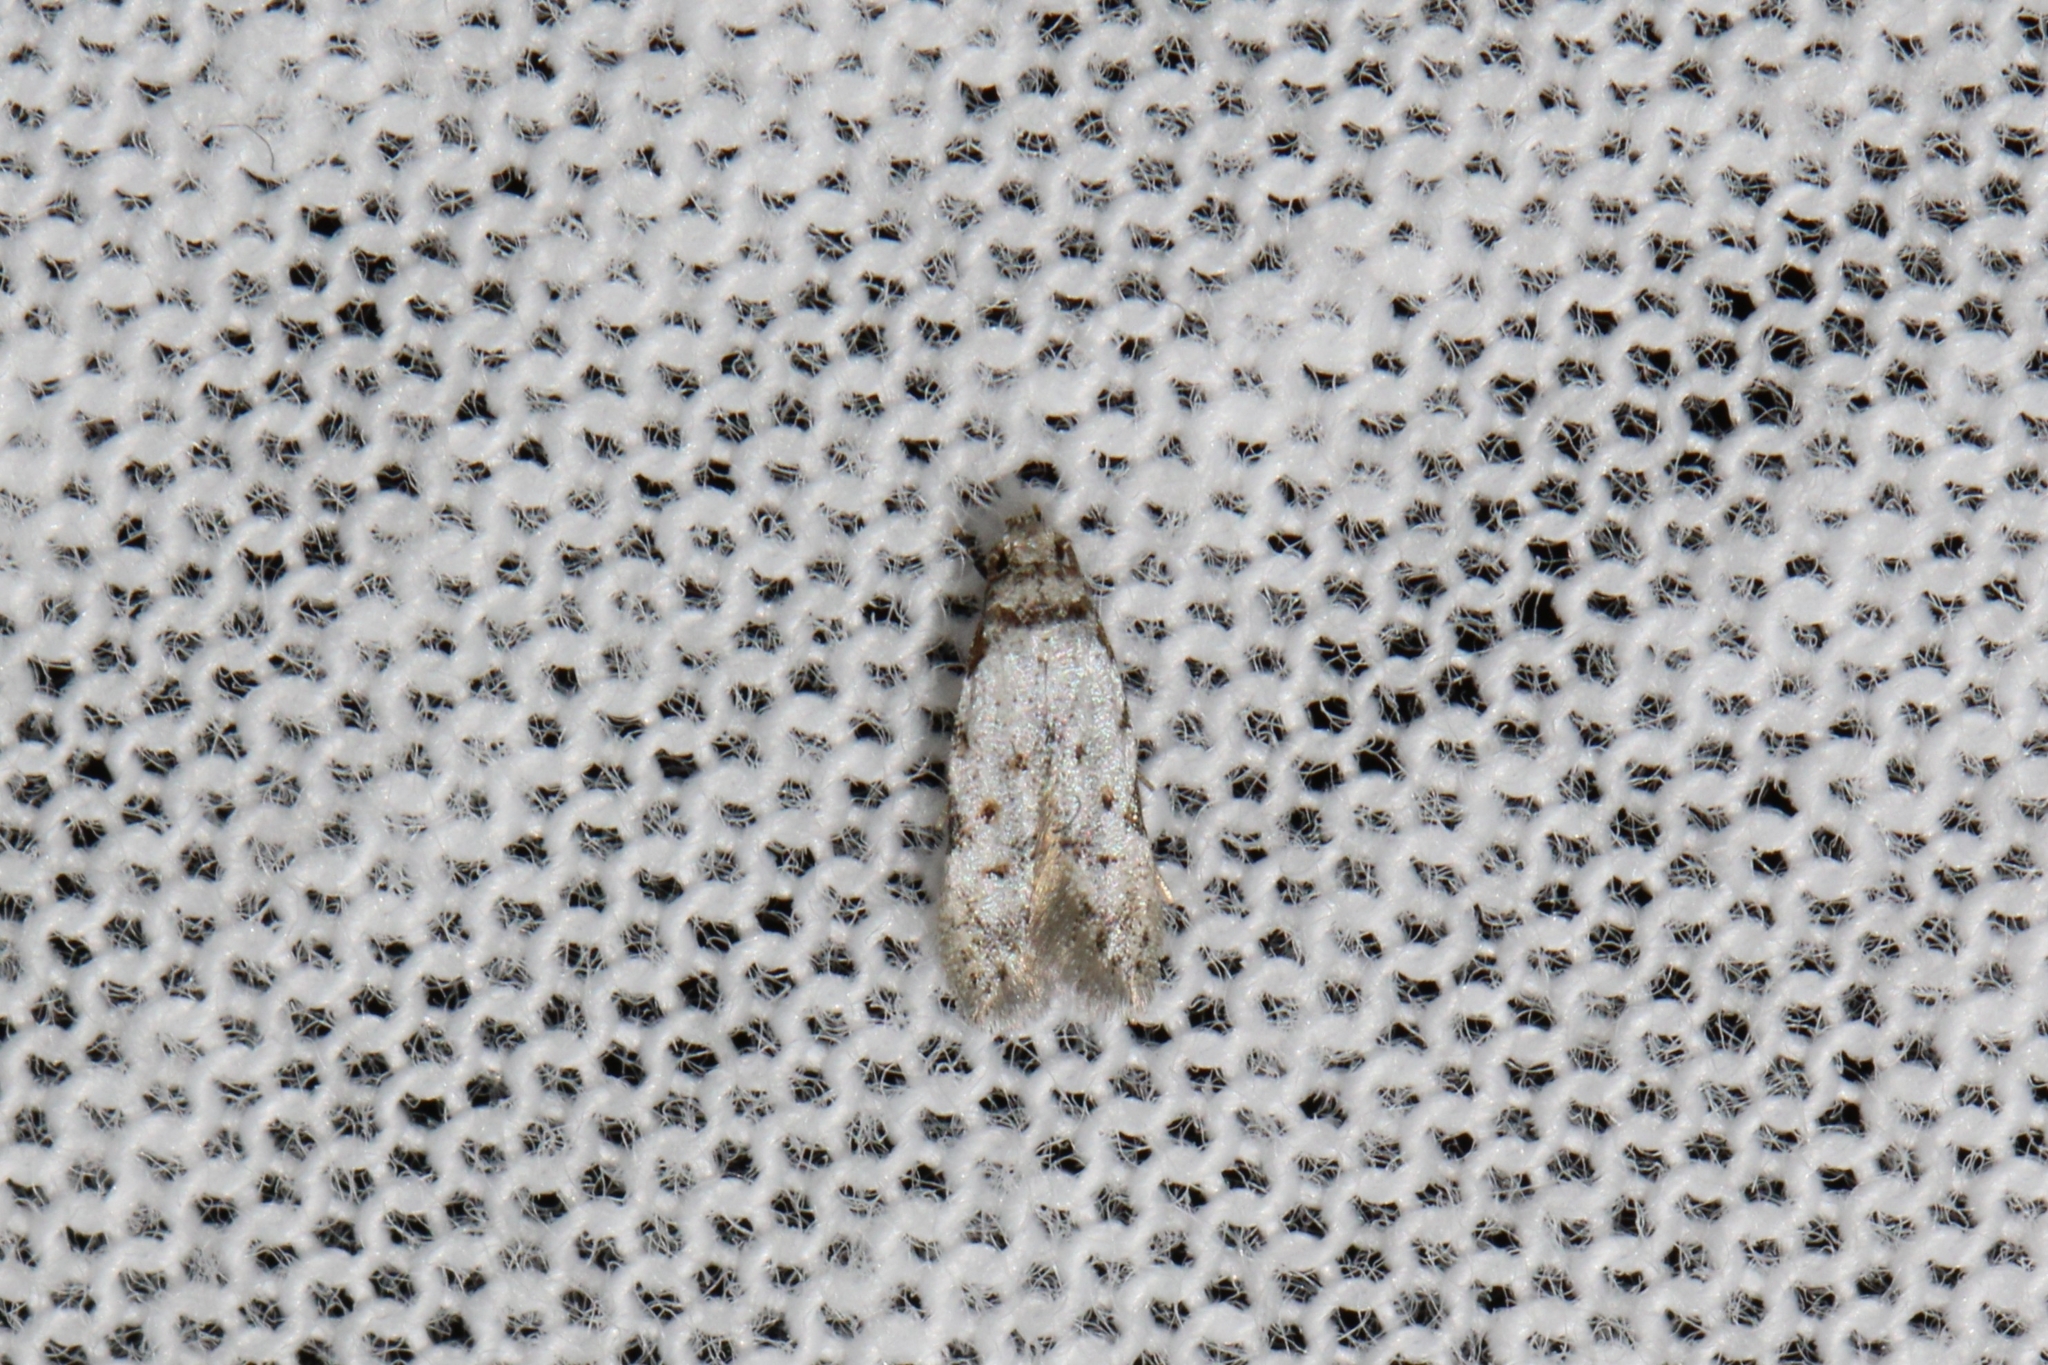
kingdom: Animalia
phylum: Arthropoda
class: Insecta
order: Lepidoptera
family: Autostichidae
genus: Taygete
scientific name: Taygete attributella
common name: Triangle-marked twirler moth
